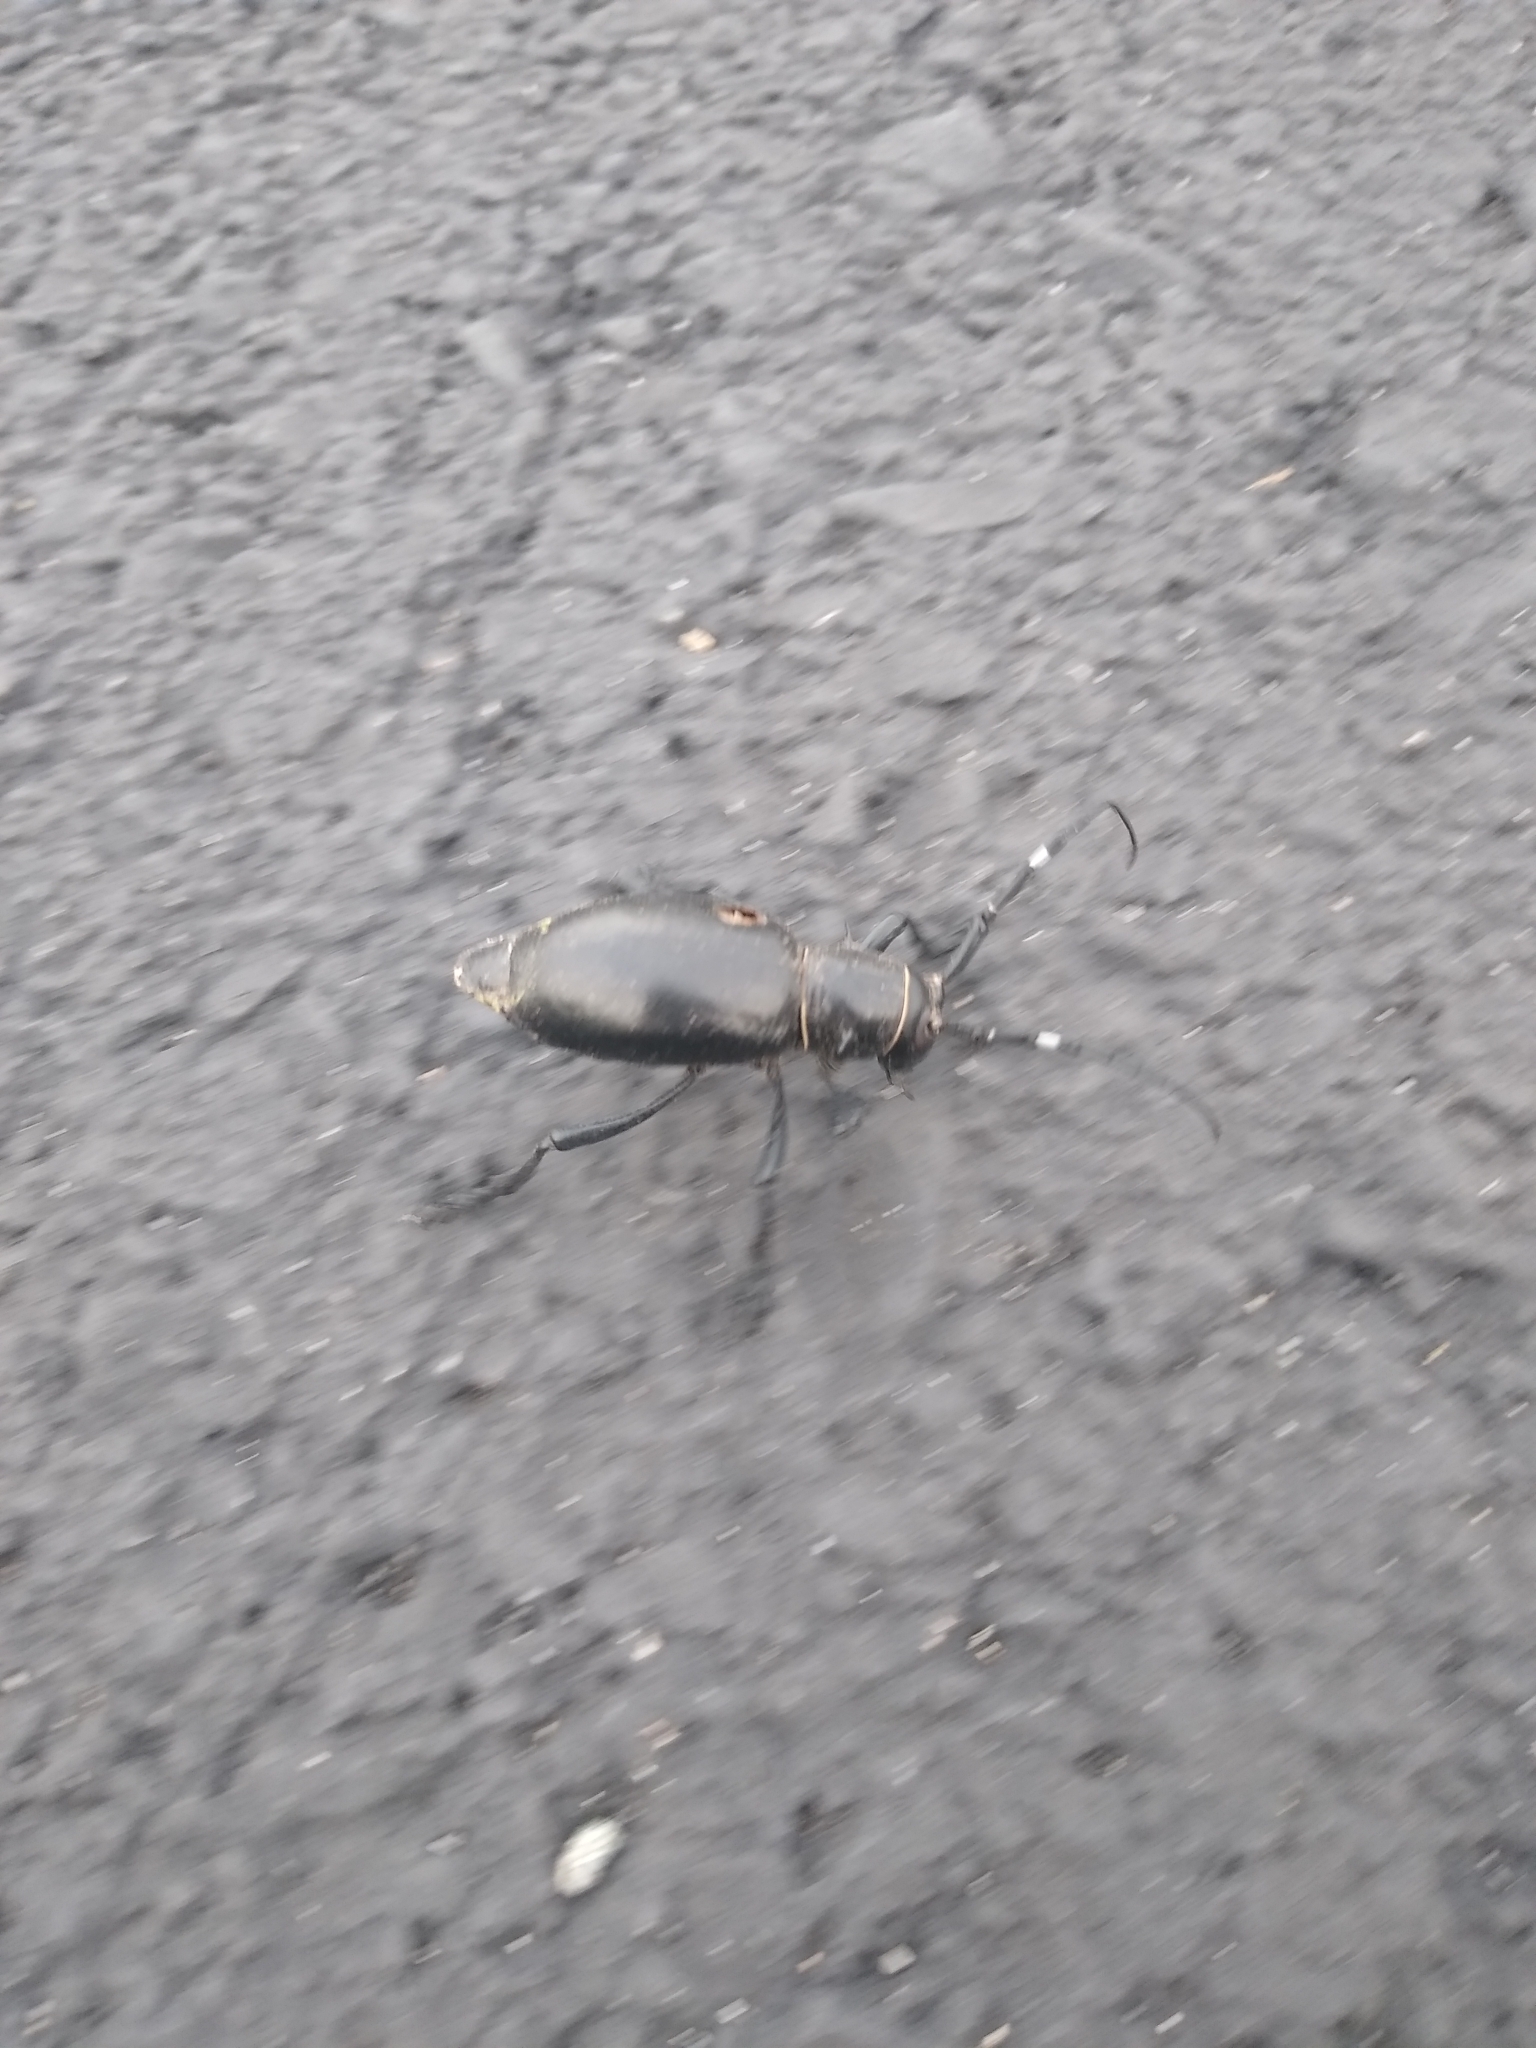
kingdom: Animalia
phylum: Arthropoda
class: Insecta
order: Coleoptera
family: Cerambycidae
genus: Moneilema
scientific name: Moneilema gigas
